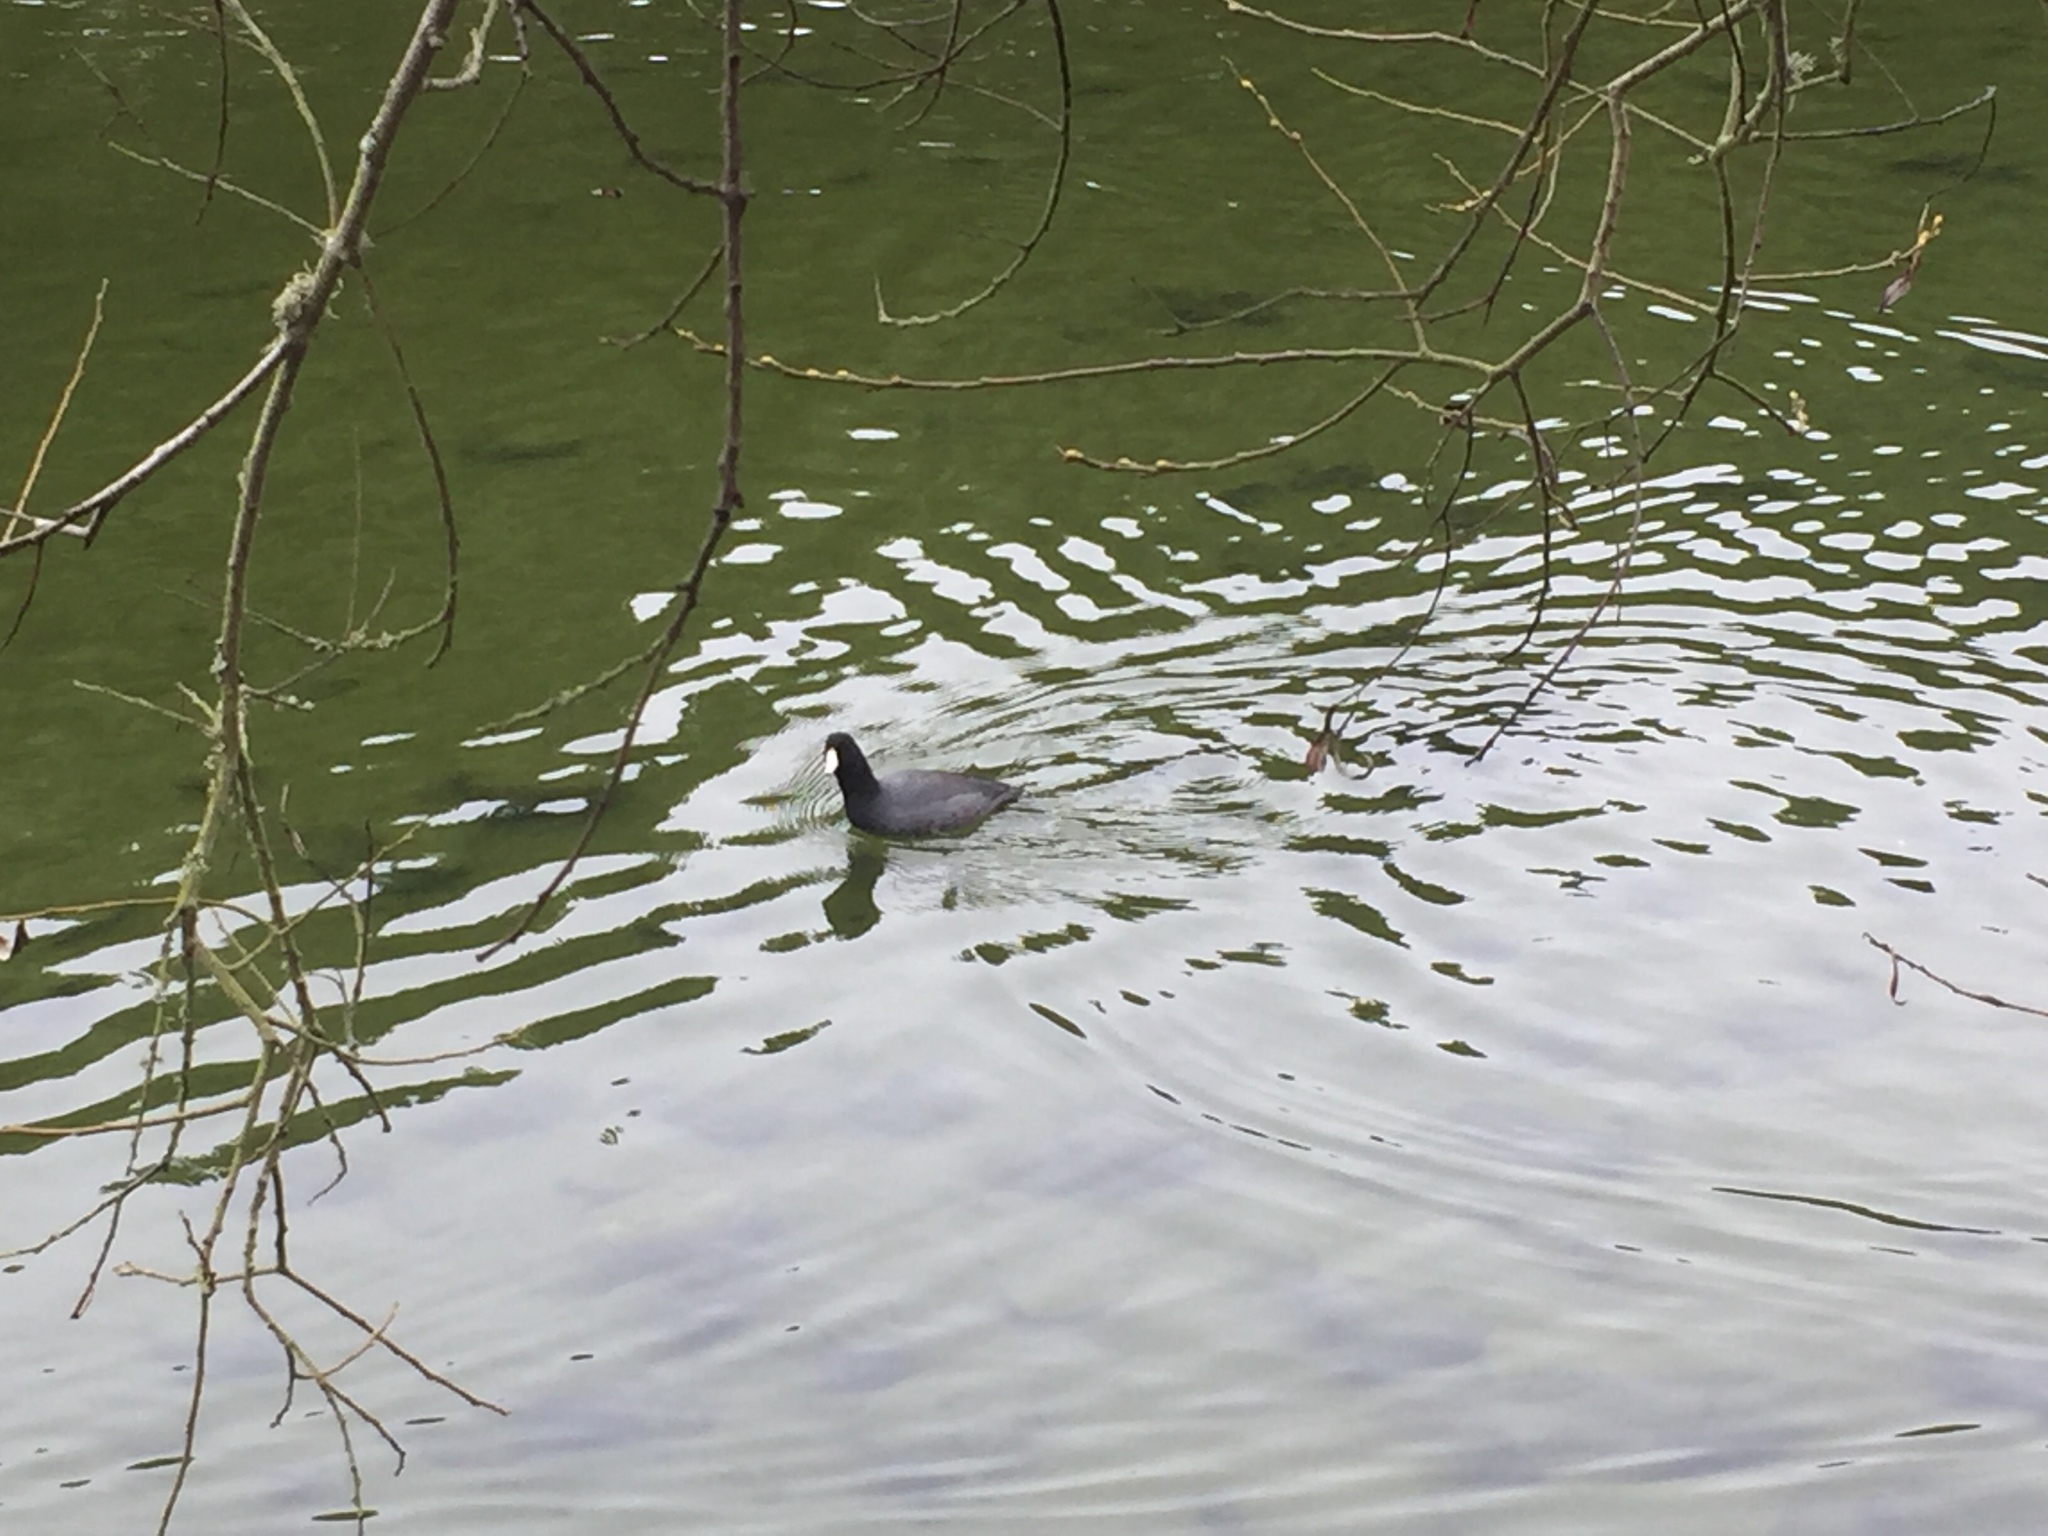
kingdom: Animalia
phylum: Chordata
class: Aves
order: Gruiformes
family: Rallidae
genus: Fulica
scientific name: Fulica americana
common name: American coot
